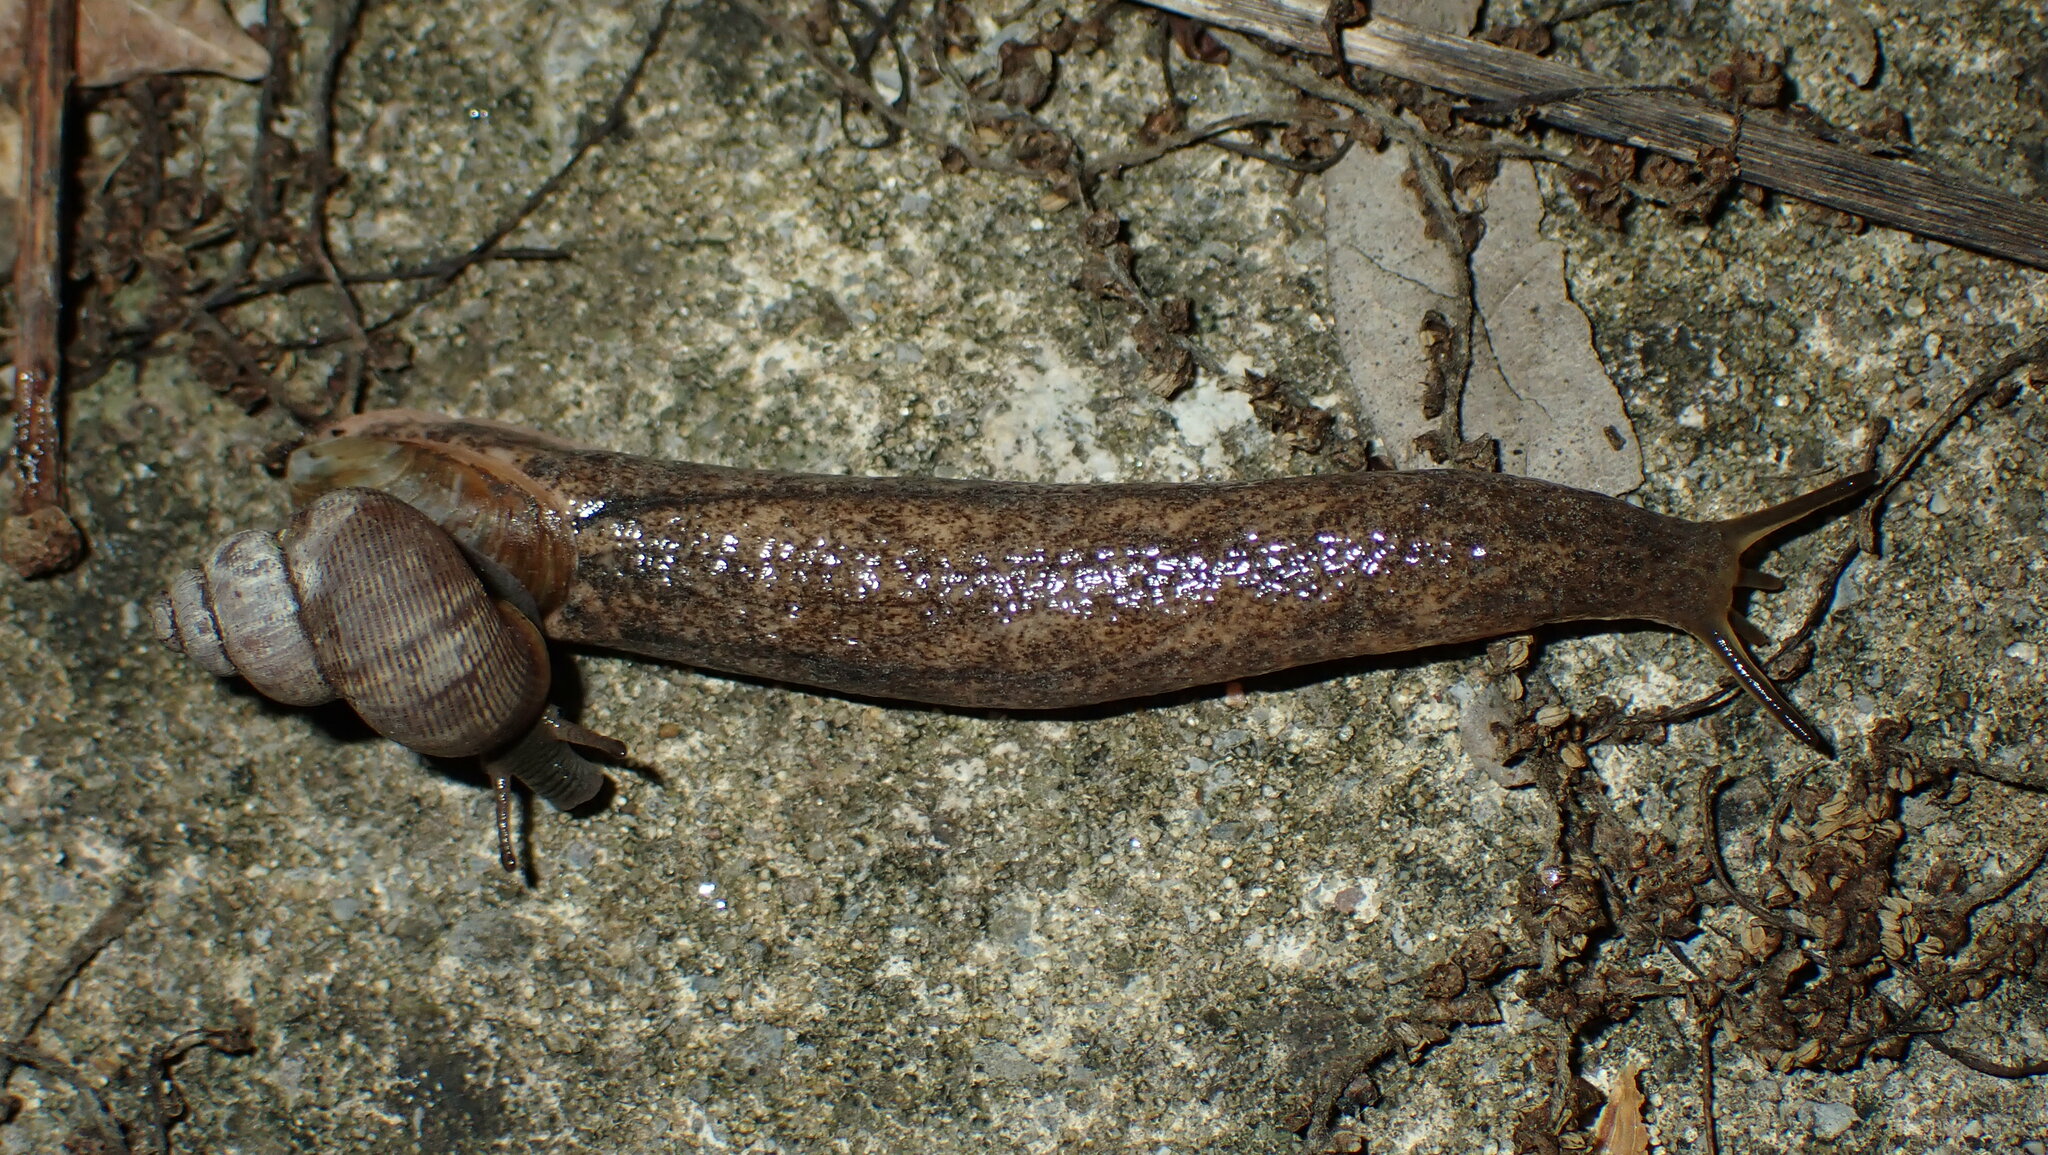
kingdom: Animalia
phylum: Mollusca
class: Gastropoda
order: Stylommatophora
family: Testacellidae
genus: Testacella
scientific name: Testacella maugei
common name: Mauge's slug
